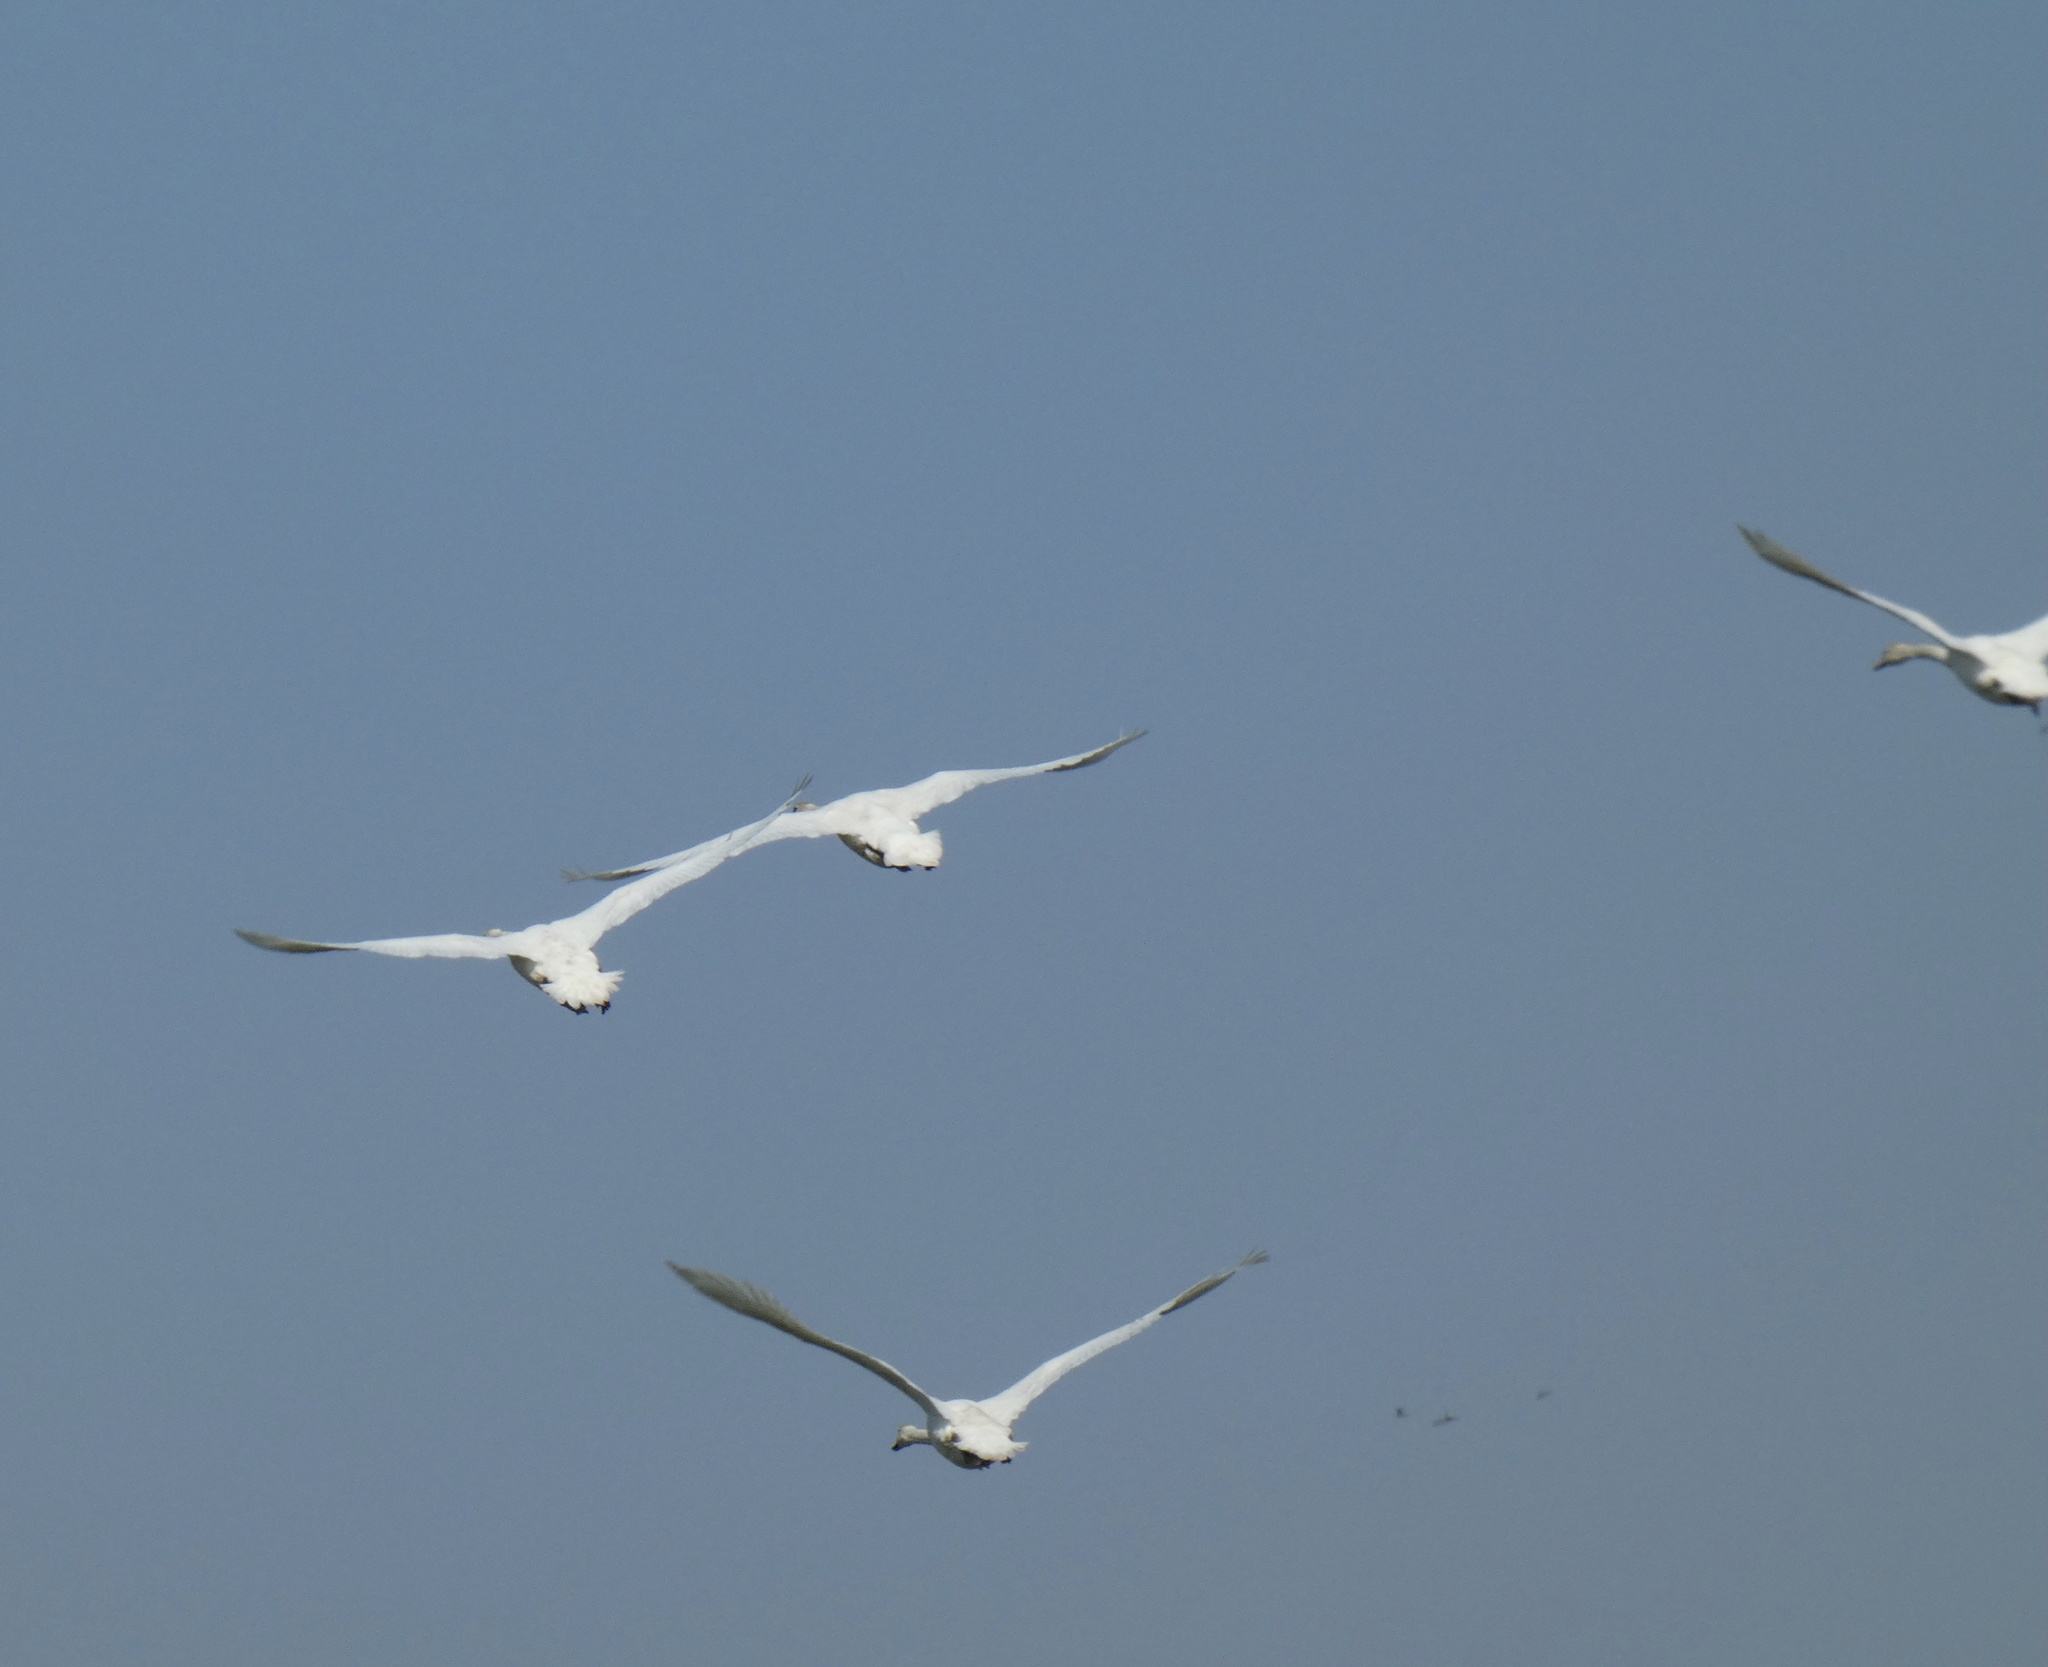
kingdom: Animalia
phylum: Chordata
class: Aves
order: Anseriformes
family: Anatidae
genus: Cygnus
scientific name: Cygnus olor
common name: Mute swan
